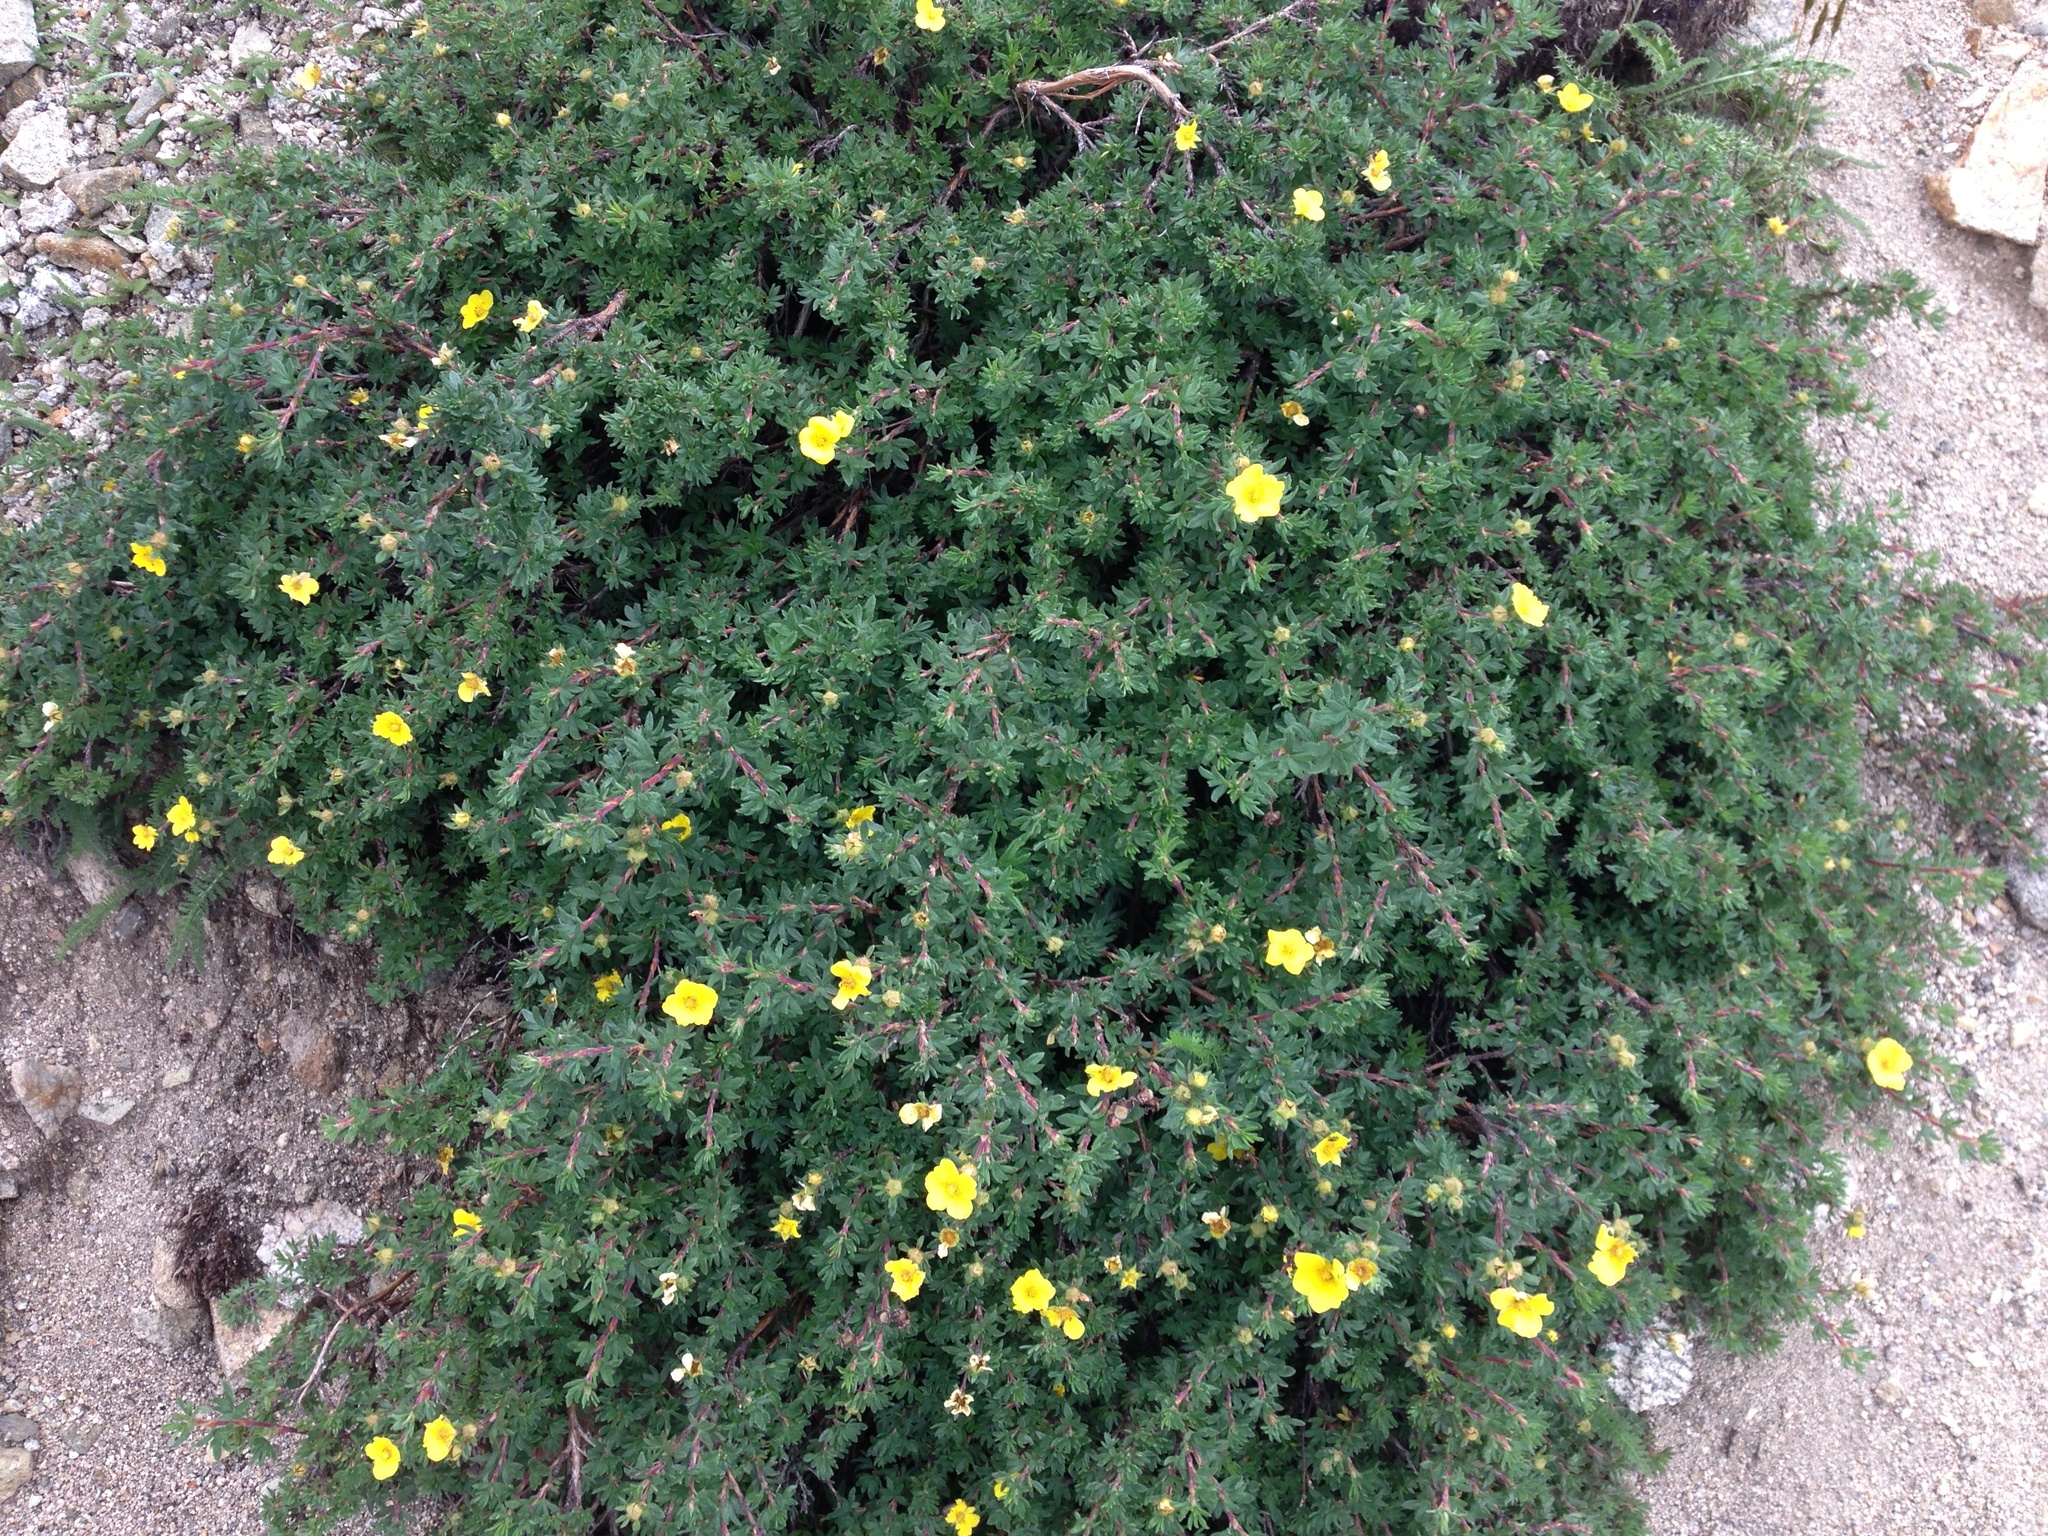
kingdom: Plantae
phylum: Tracheophyta
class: Magnoliopsida
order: Rosales
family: Rosaceae
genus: Dasiphora
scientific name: Dasiphora fruticosa
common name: Shrubby cinquefoil
